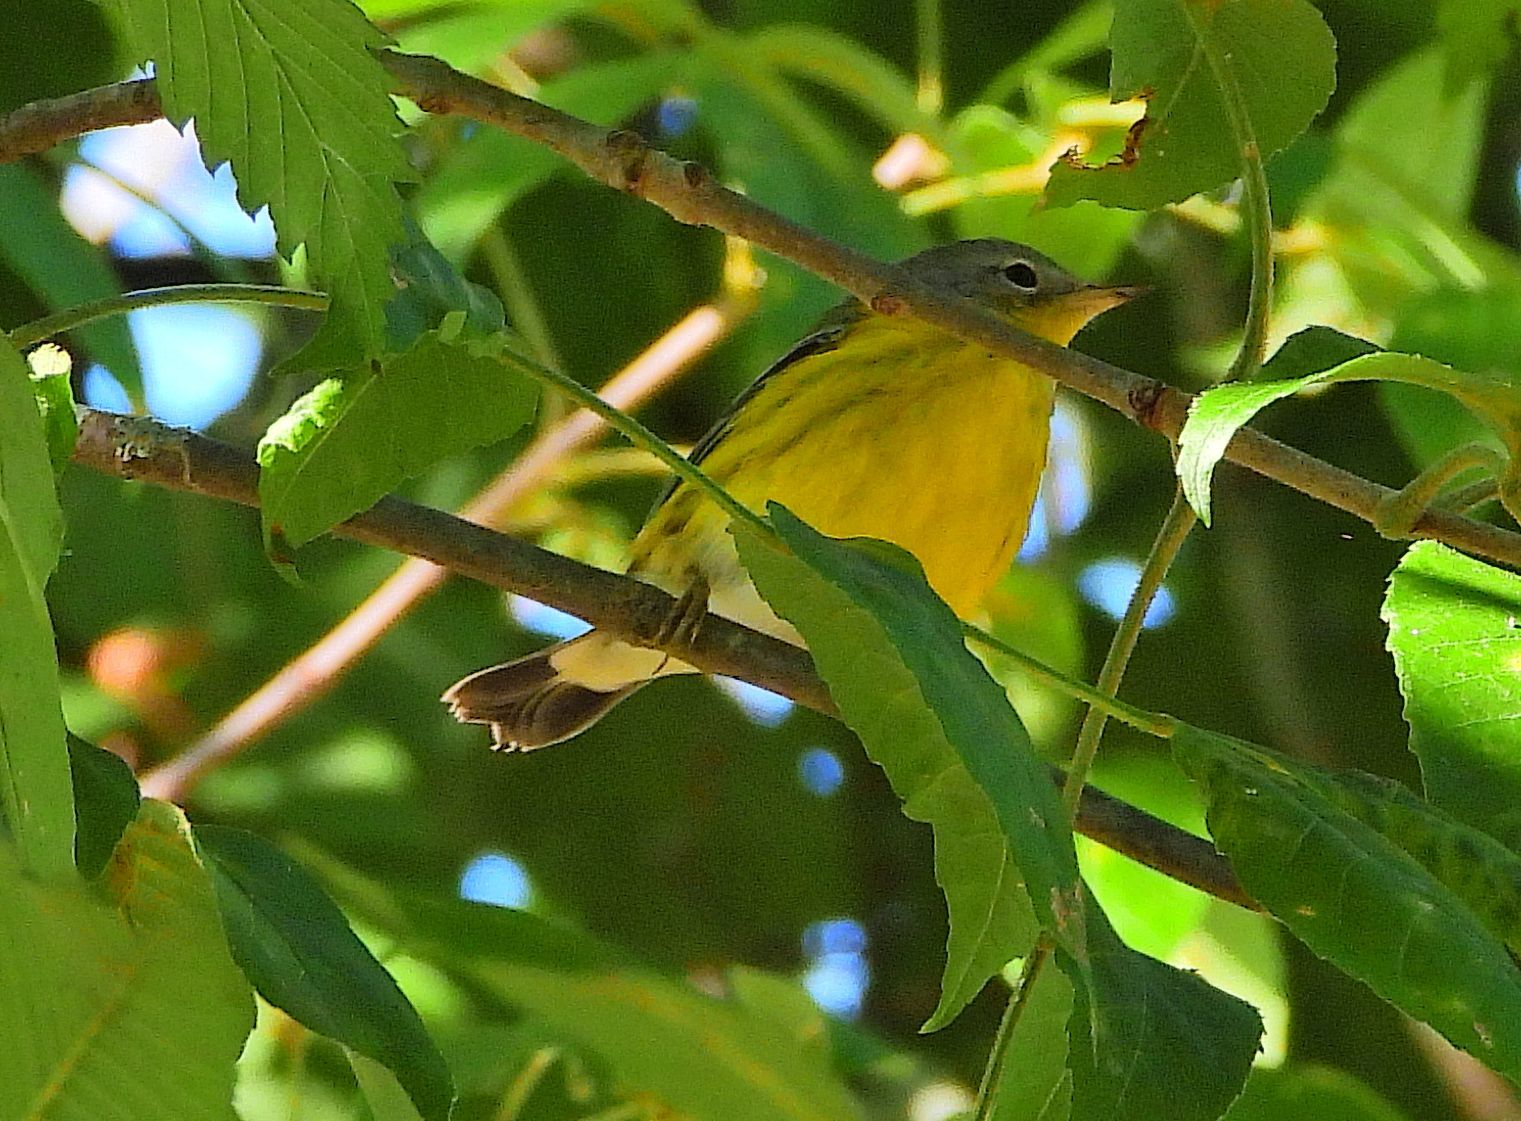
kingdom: Animalia
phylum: Chordata
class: Aves
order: Passeriformes
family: Parulidae
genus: Setophaga
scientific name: Setophaga magnolia
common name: Magnolia warbler
